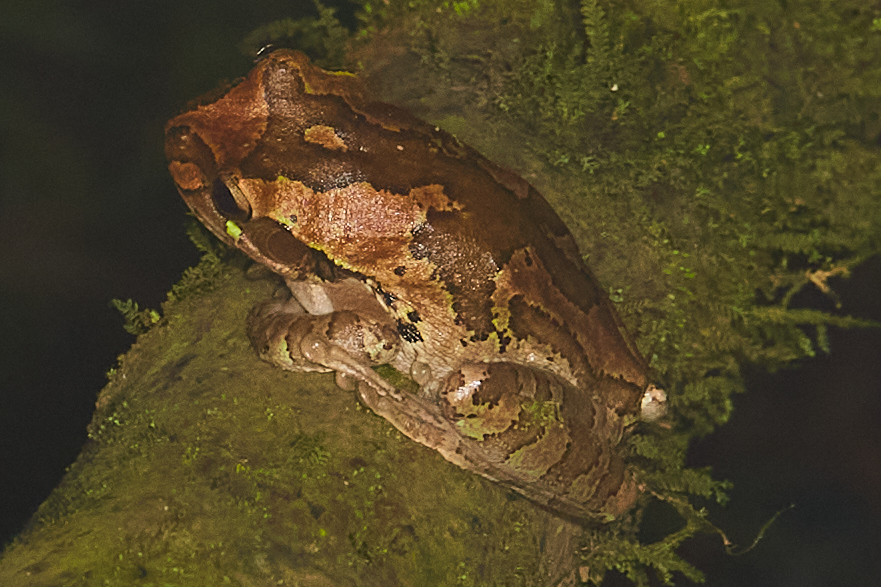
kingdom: Animalia
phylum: Chordata
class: Amphibia
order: Anura
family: Hylidae
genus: Smilisca
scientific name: Smilisca manisorum
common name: Masked tree frog
